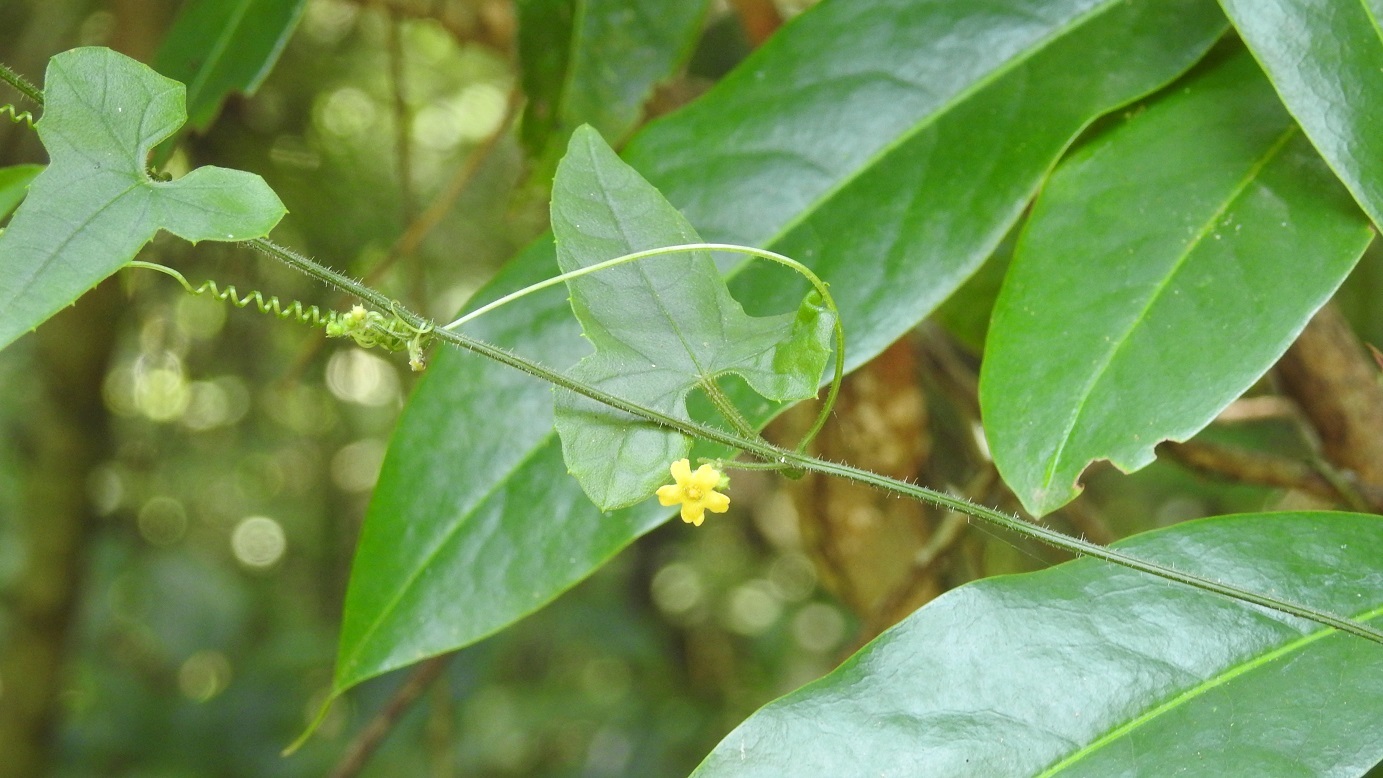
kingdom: Plantae
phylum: Tracheophyta
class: Magnoliopsida
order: Cucurbitales
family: Cucurbitaceae
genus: Melothria
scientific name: Melothria pendula
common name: Creeping-cucumber
